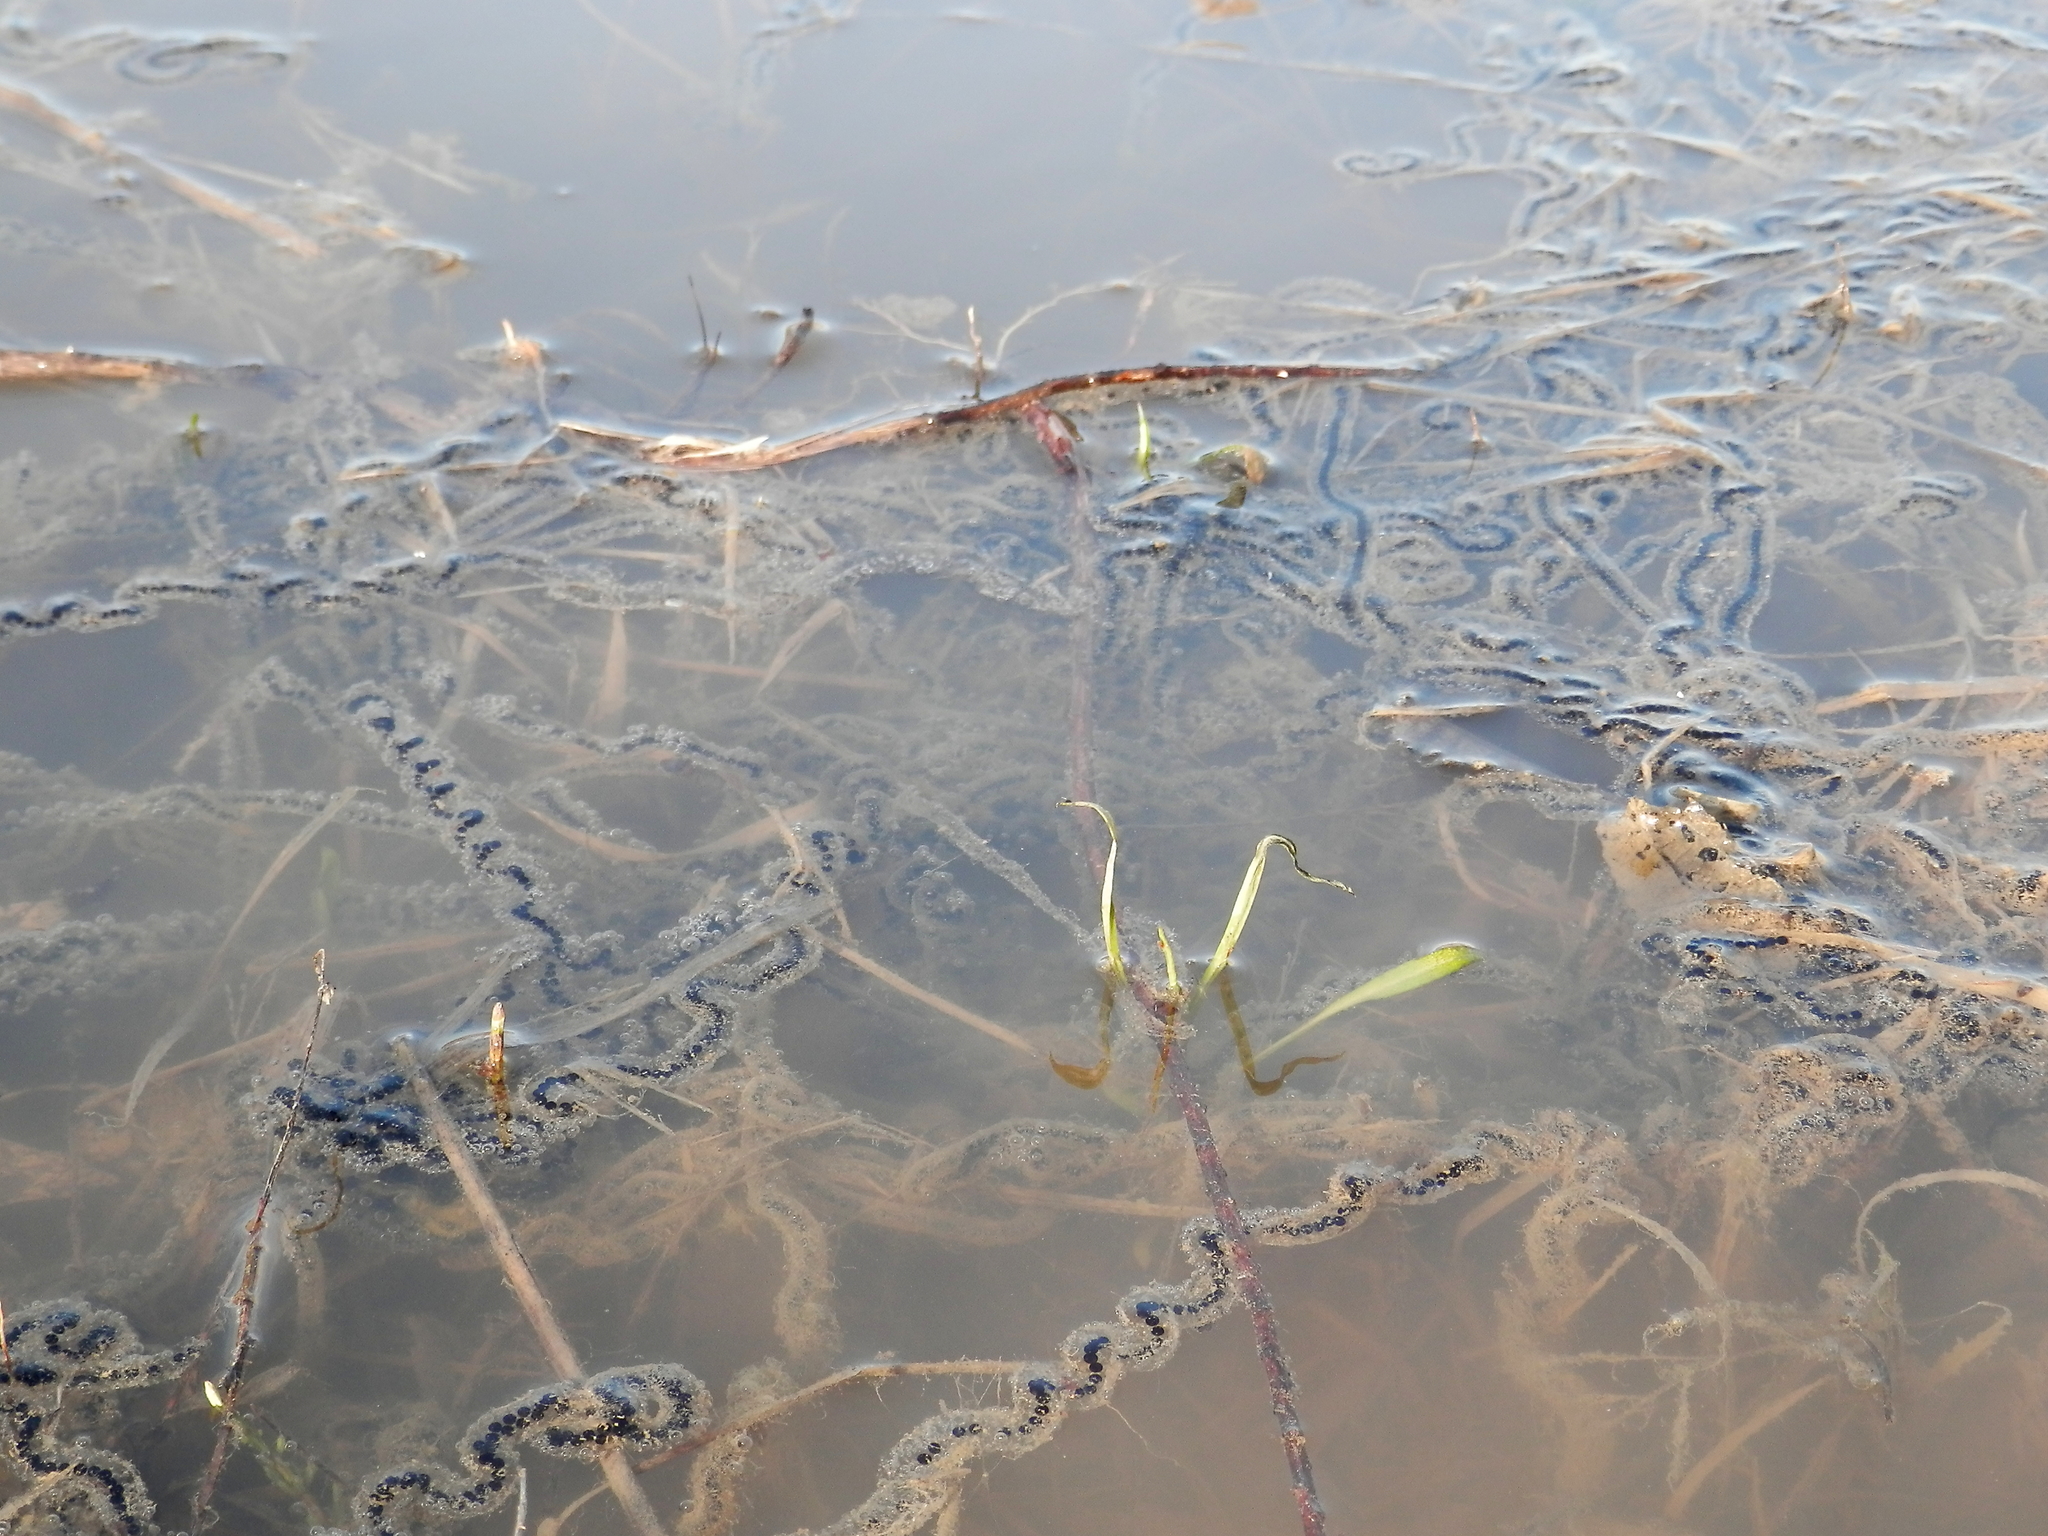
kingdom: Animalia
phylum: Chordata
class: Amphibia
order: Anura
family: Bufonidae
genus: Anaxyrus
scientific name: Anaxyrus americanus
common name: American toad
